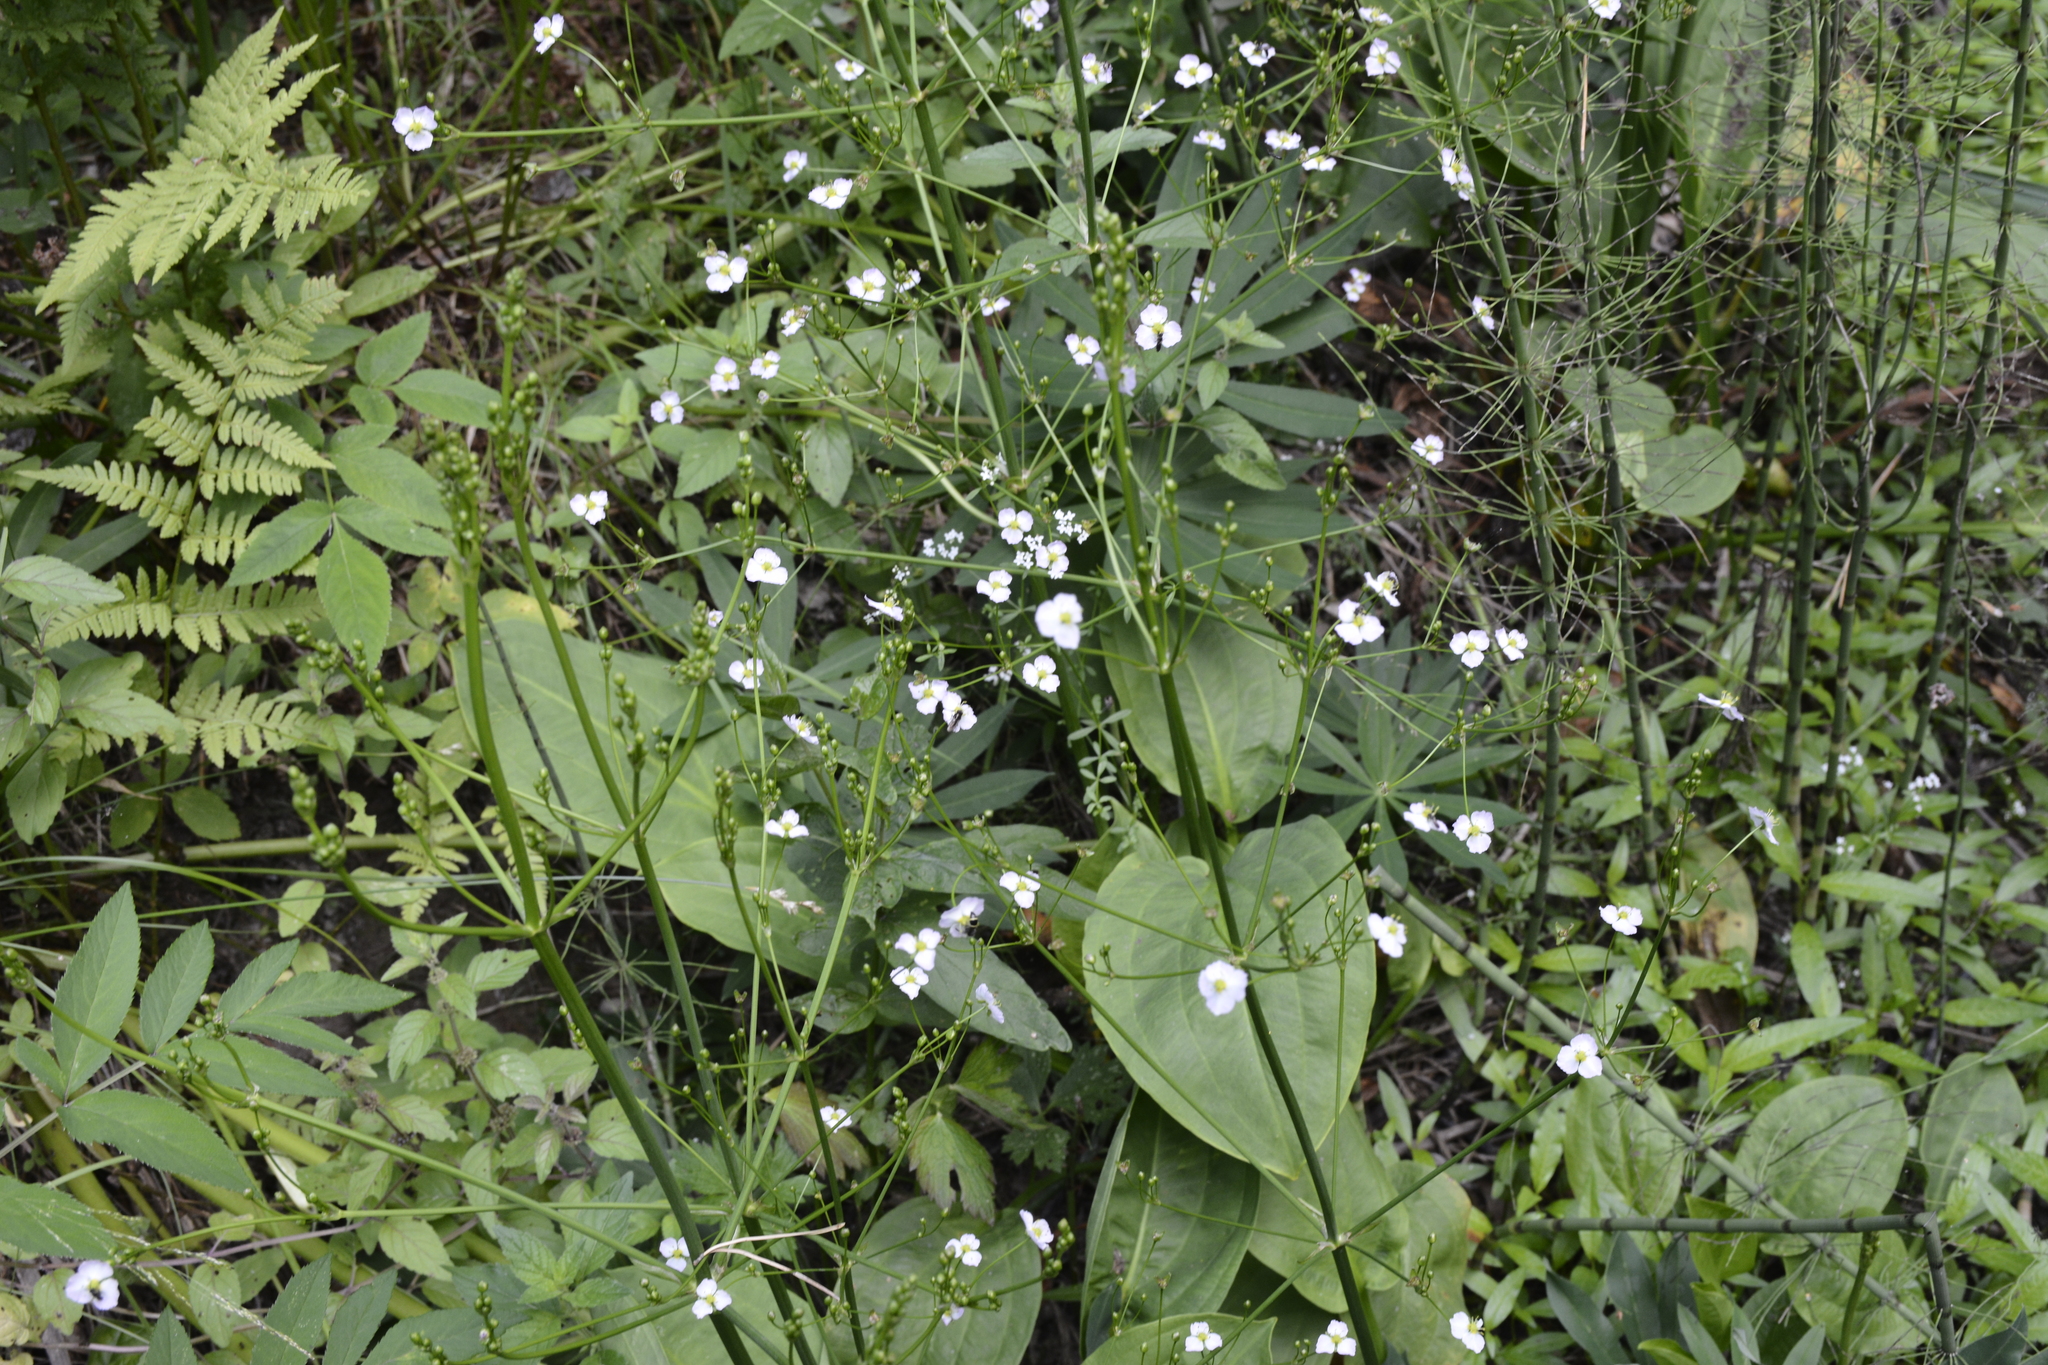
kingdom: Plantae
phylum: Tracheophyta
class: Liliopsida
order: Alismatales
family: Alismataceae
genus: Alisma
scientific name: Alisma plantago-aquatica
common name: Water-plantain
